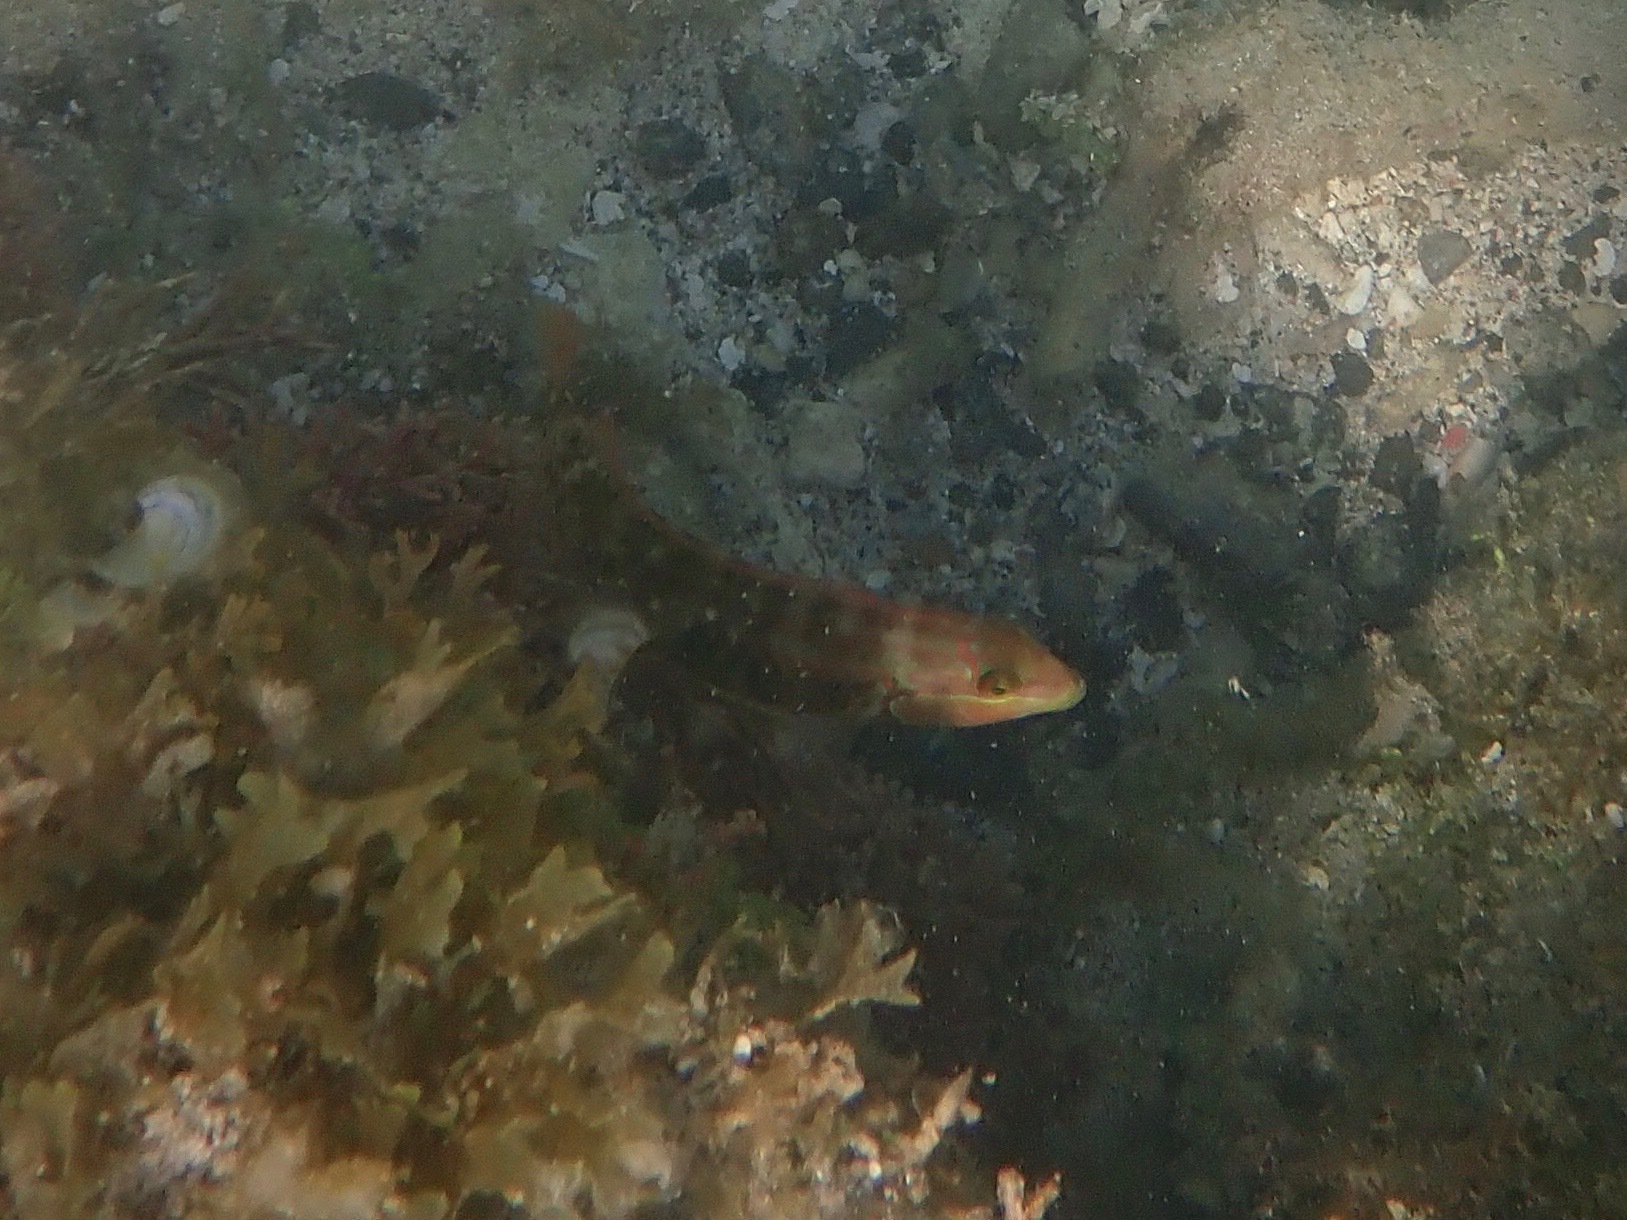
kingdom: Animalia
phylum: Chordata
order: Perciformes
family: Labridae
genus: Halichoeres
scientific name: Halichoeres bivittatus
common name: Slippery dick
